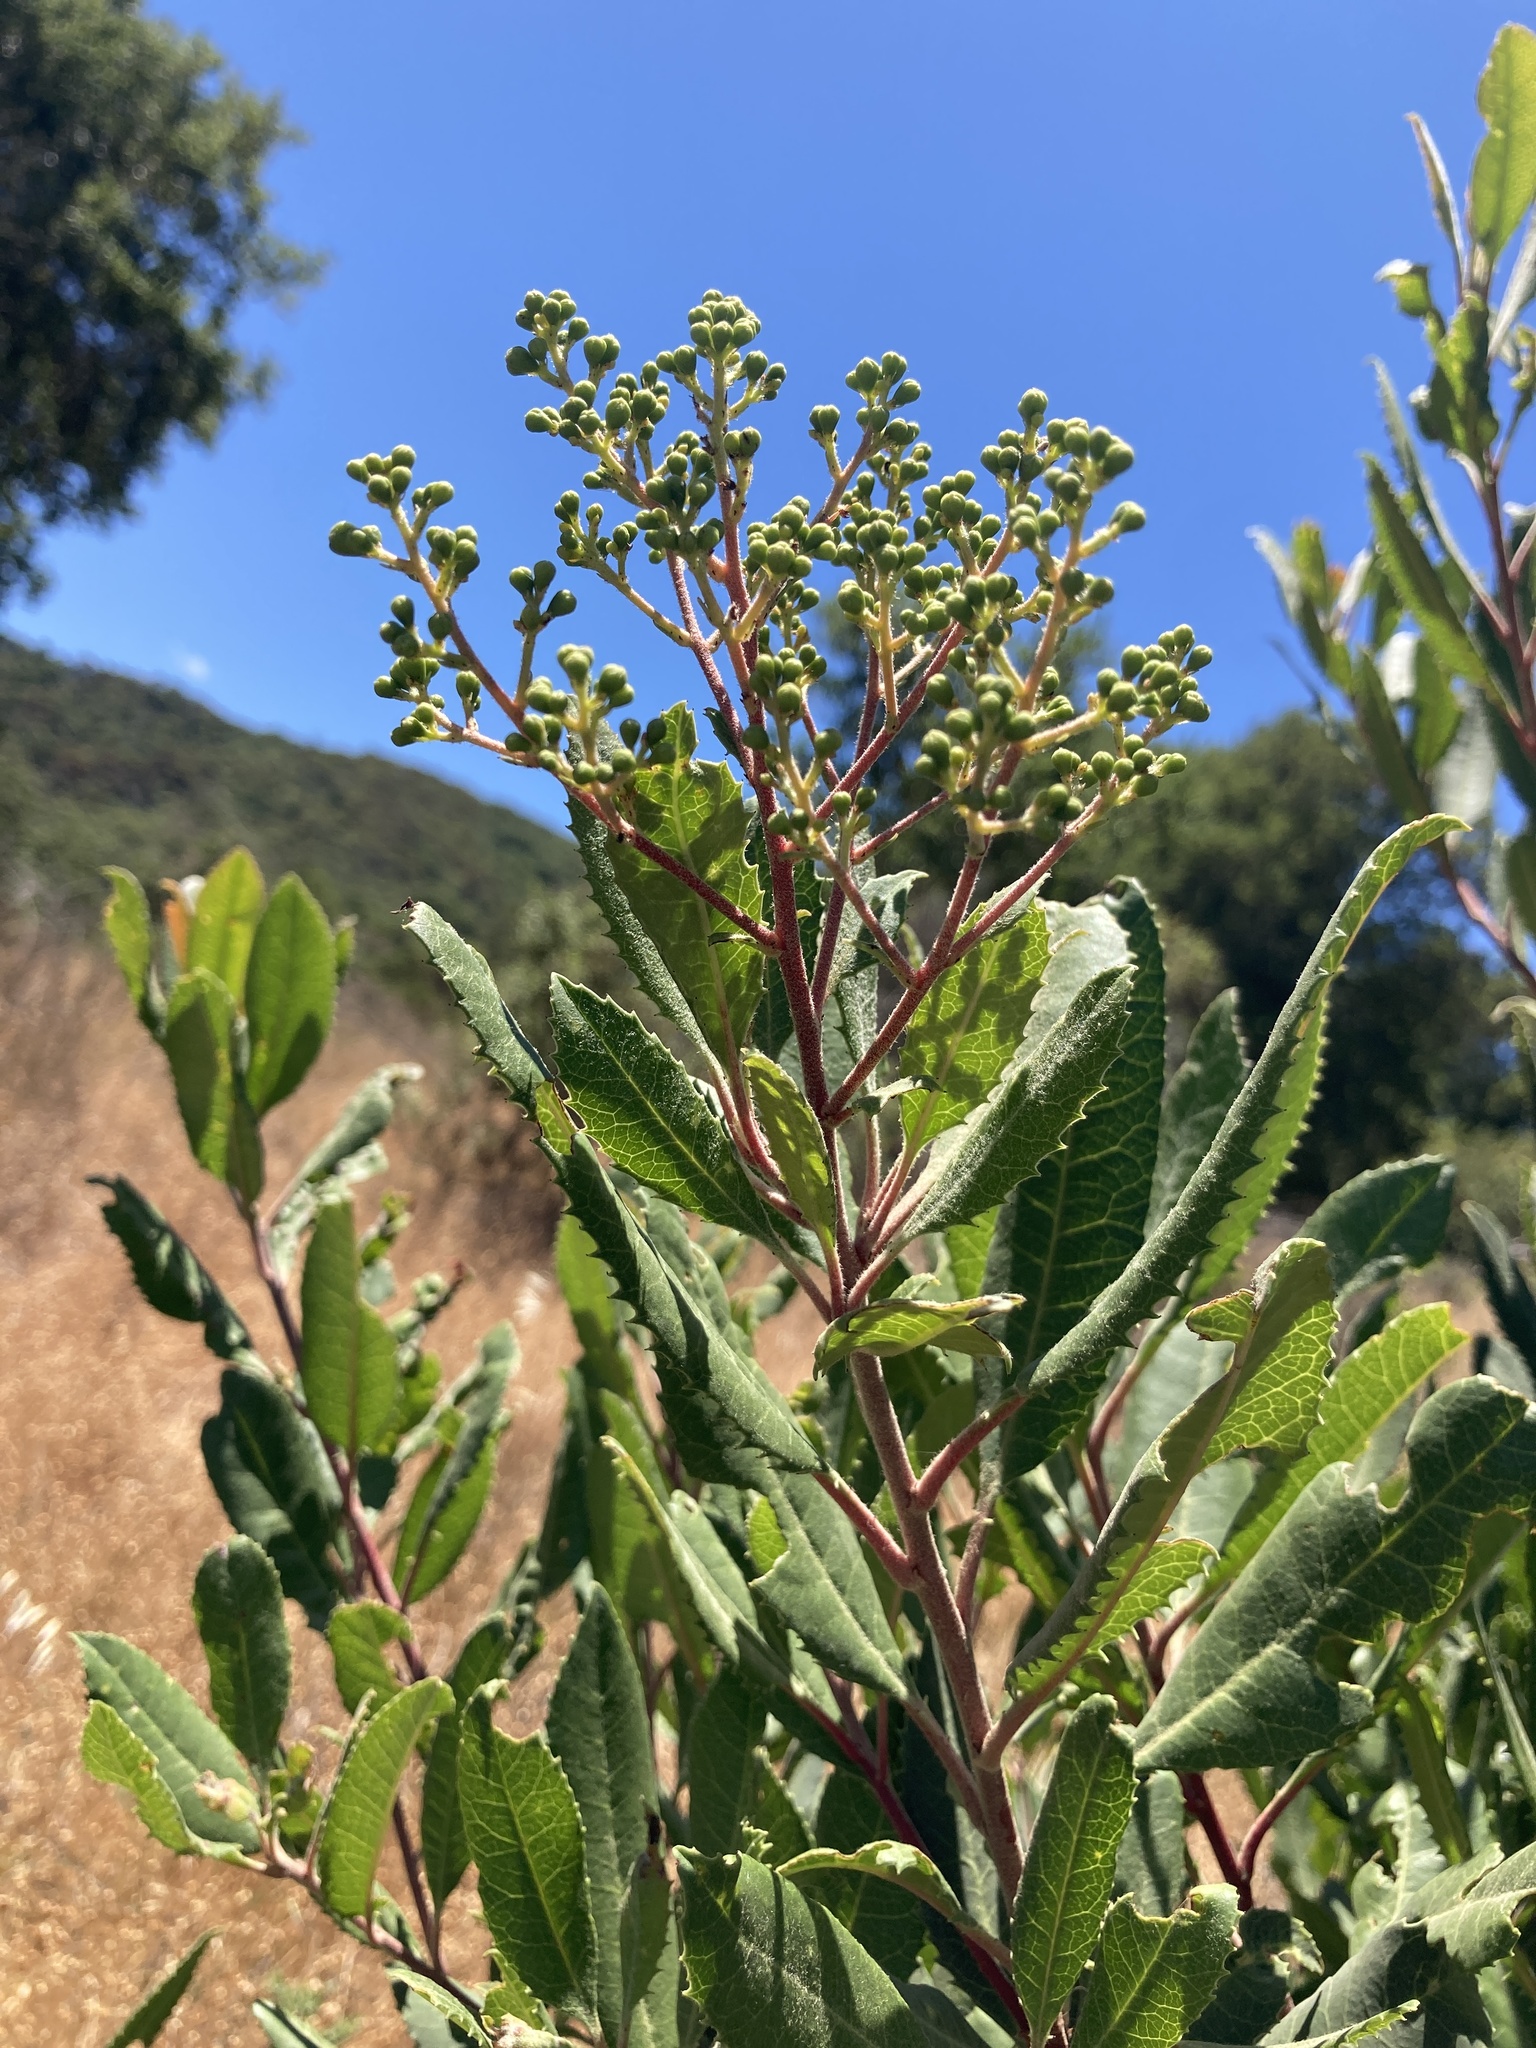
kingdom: Plantae
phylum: Tracheophyta
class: Magnoliopsida
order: Rosales
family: Rosaceae
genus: Heteromeles
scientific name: Heteromeles arbutifolia
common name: California-holly
